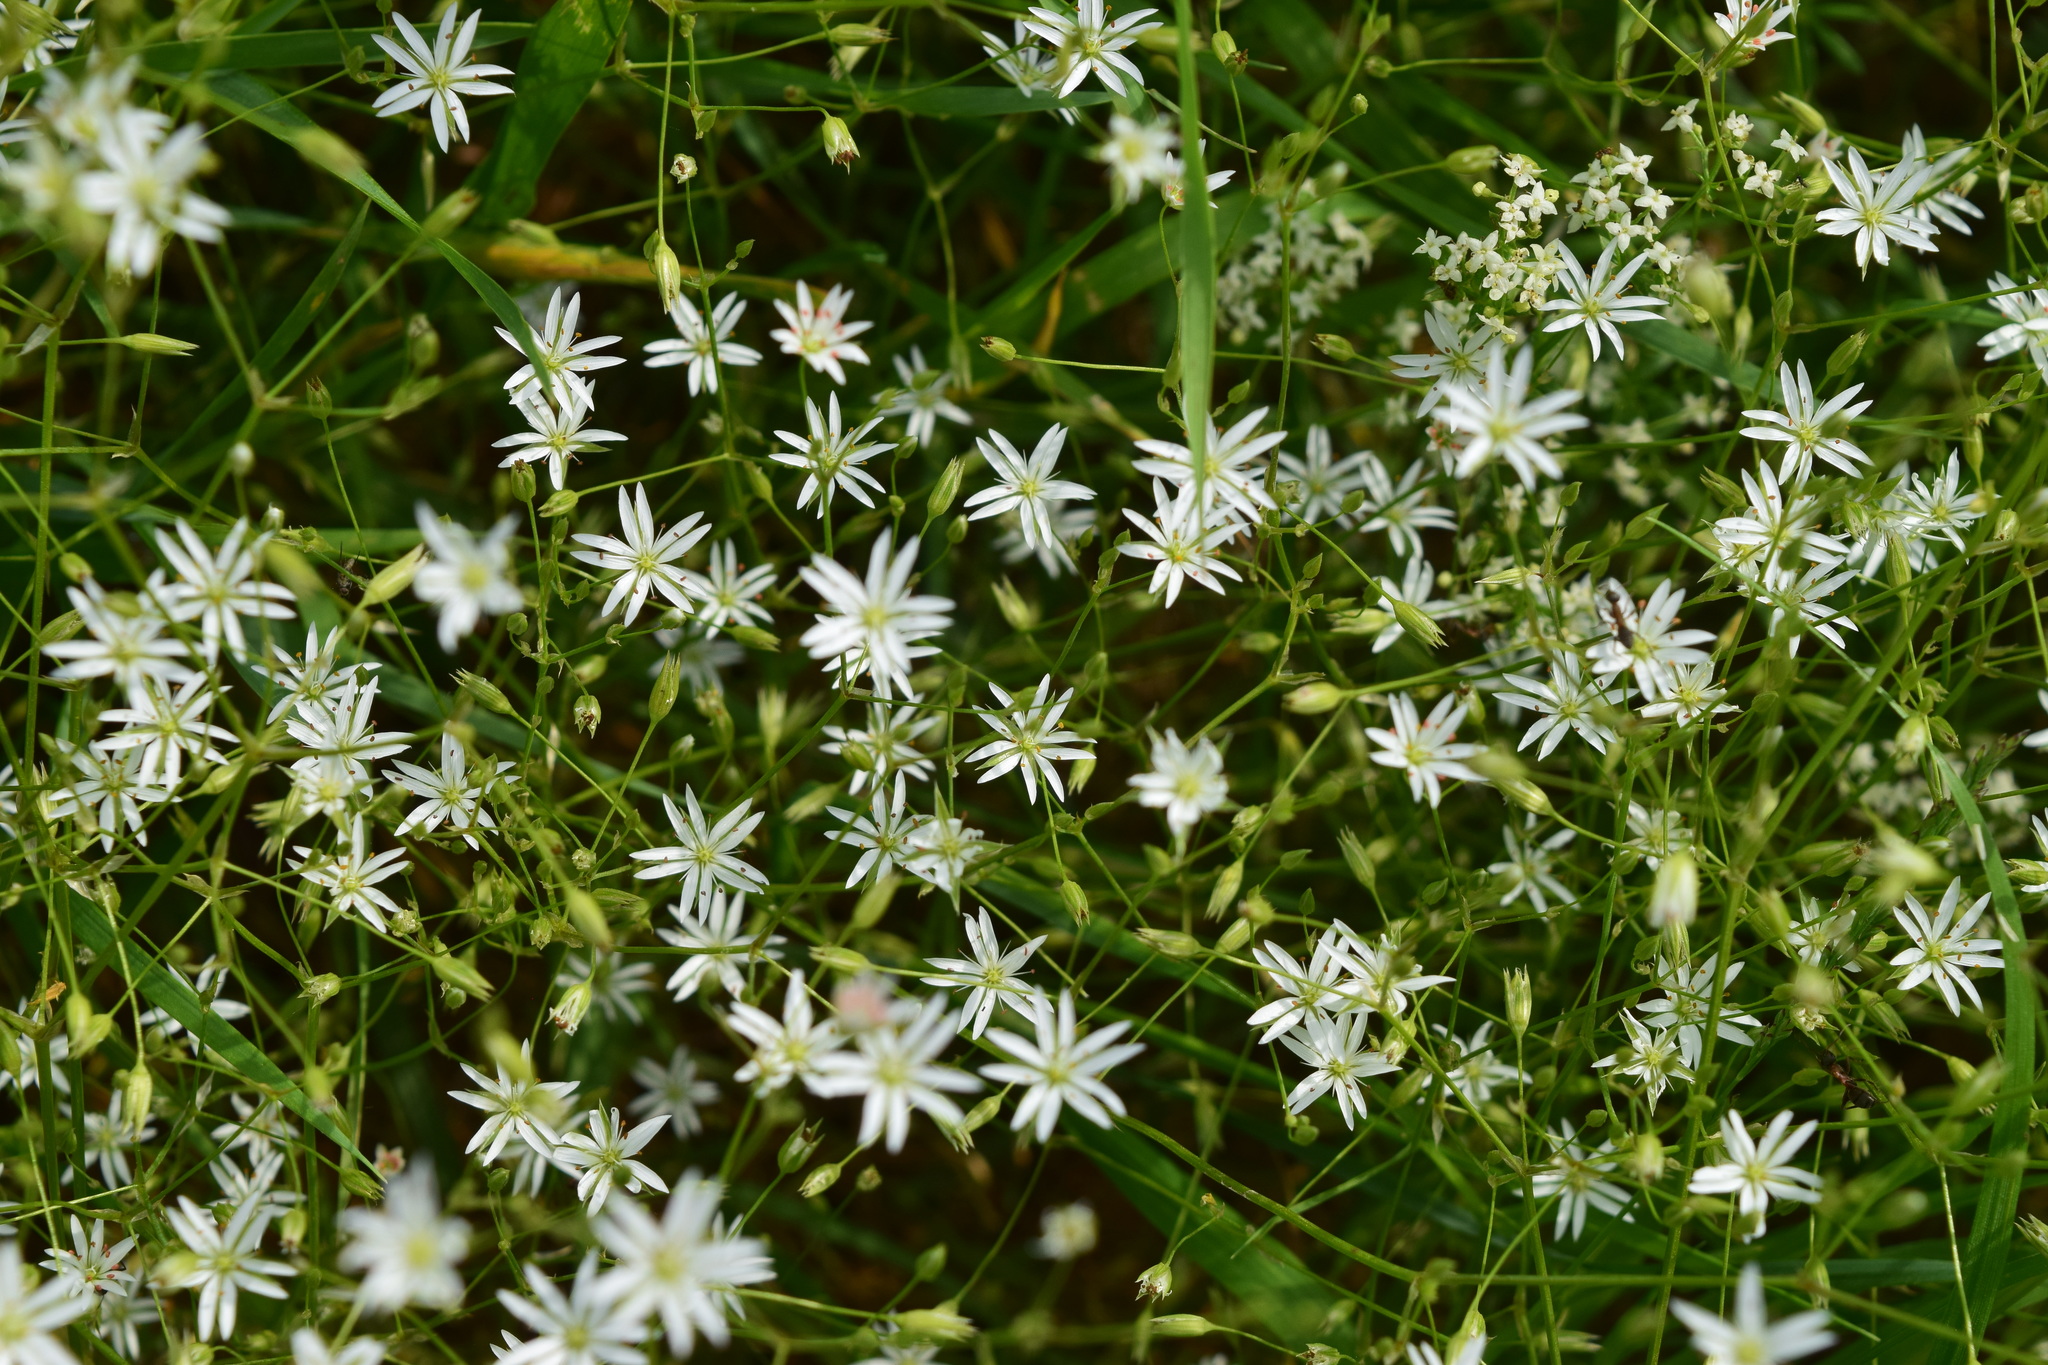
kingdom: Plantae
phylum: Tracheophyta
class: Magnoliopsida
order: Caryophyllales
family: Caryophyllaceae
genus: Stellaria
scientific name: Stellaria graminea
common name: Grass-like starwort
